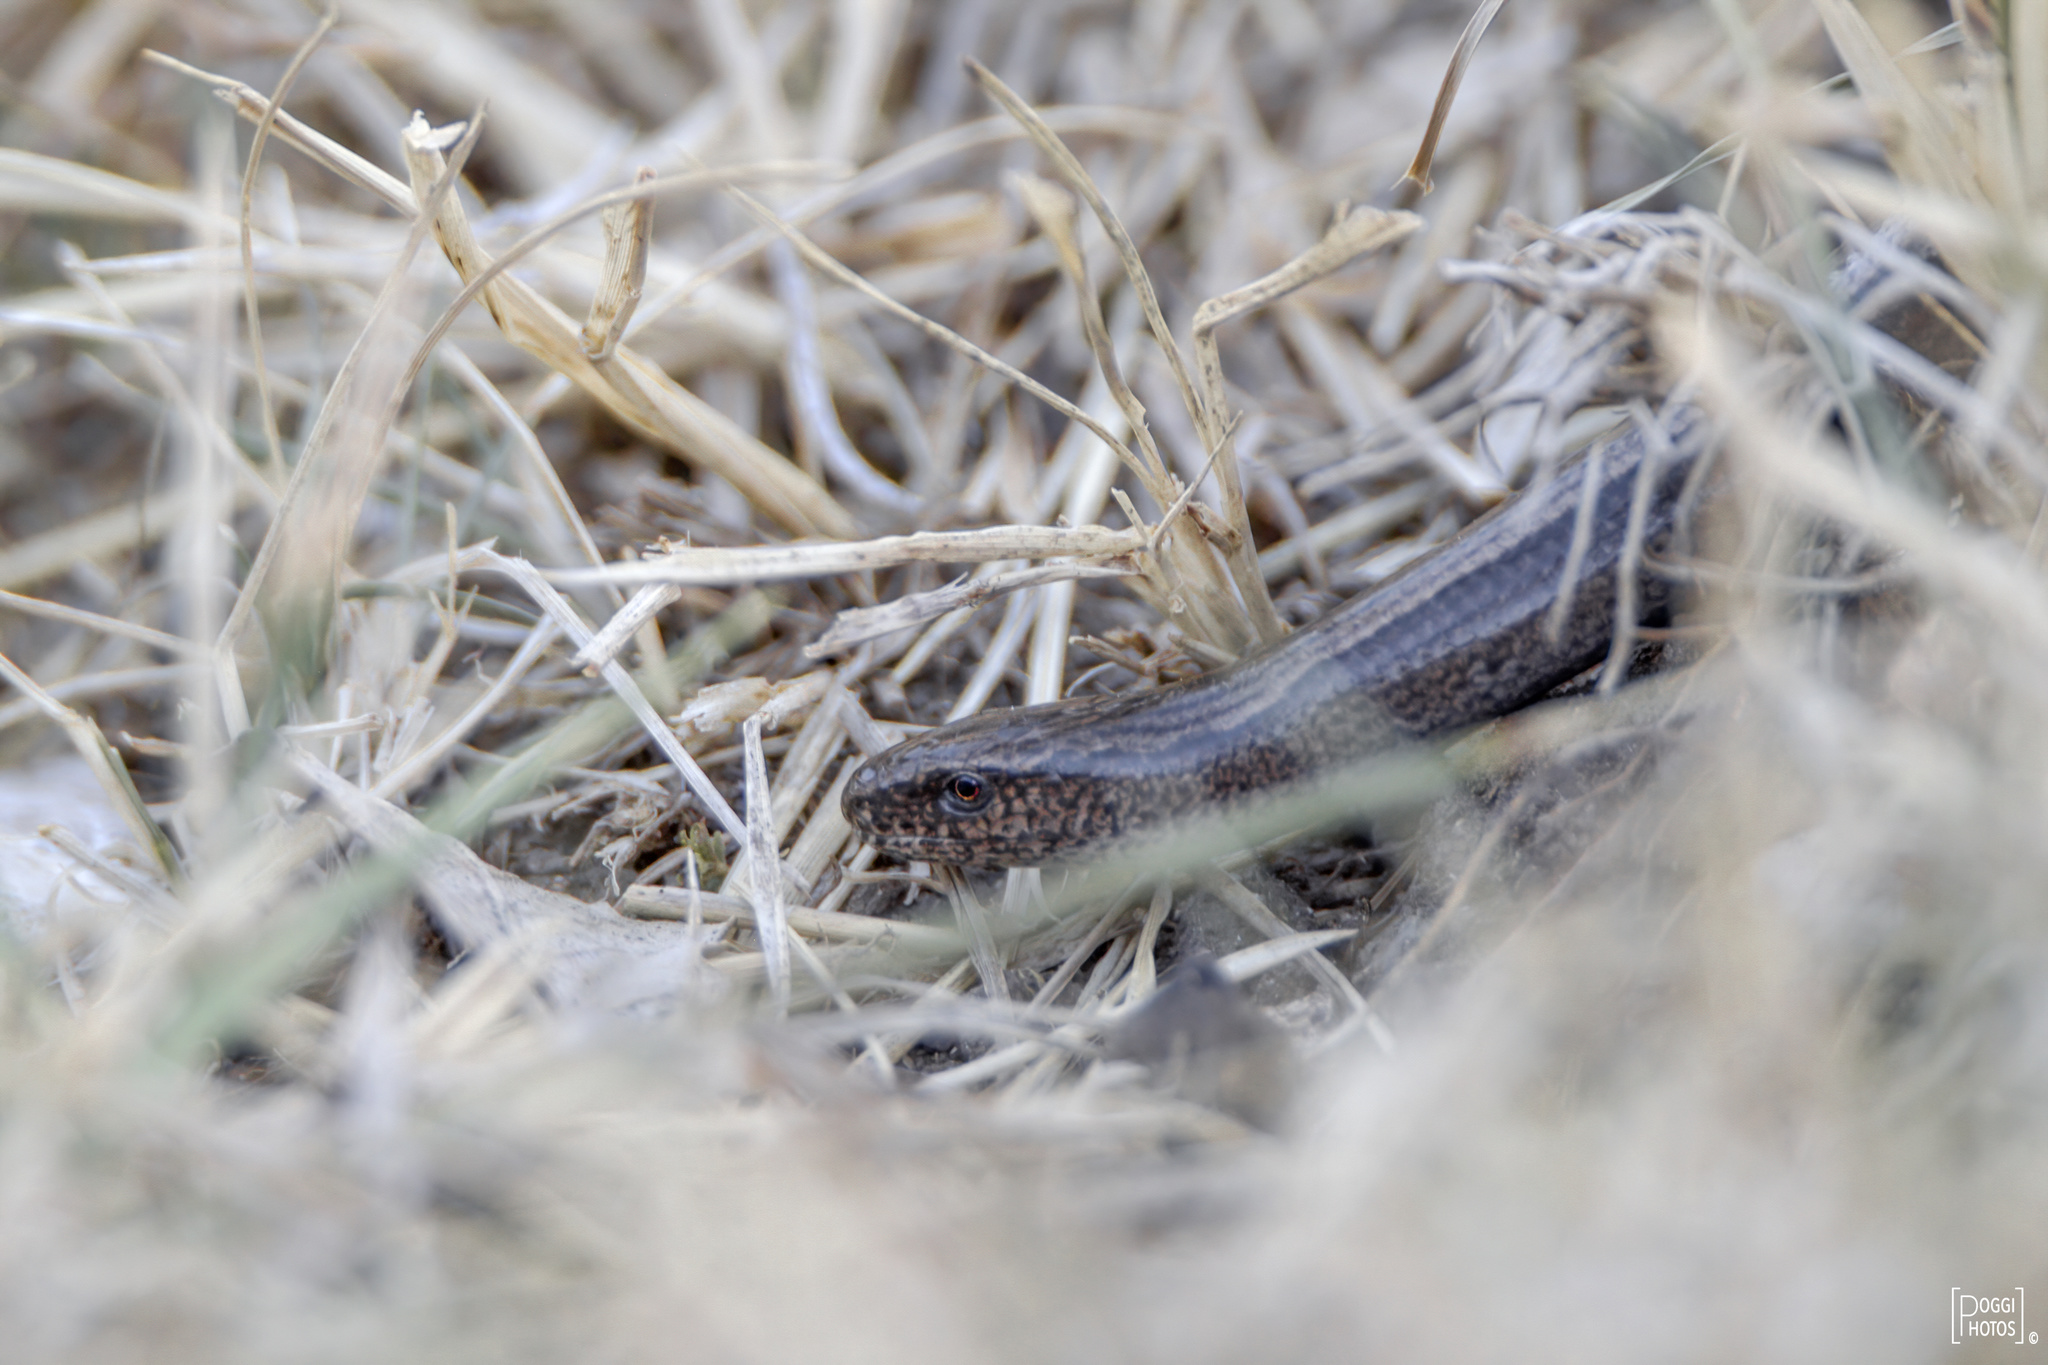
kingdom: Animalia
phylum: Chordata
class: Squamata
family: Anguidae
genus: Anguis
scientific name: Anguis veronensis
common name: Italian slow worm
